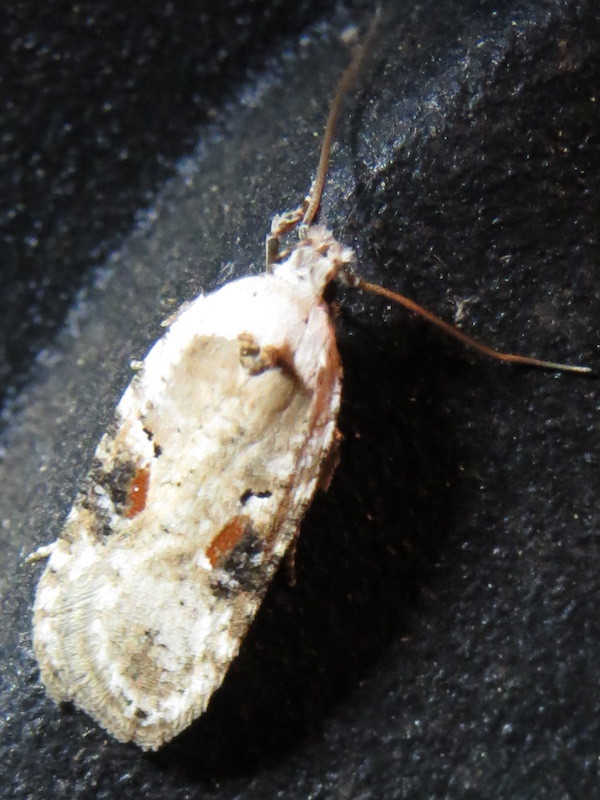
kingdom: Animalia
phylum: Arthropoda
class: Insecta
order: Lepidoptera
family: Depressariidae
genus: Agonopterix
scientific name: Agonopterix alstroemeriana
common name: Moth
